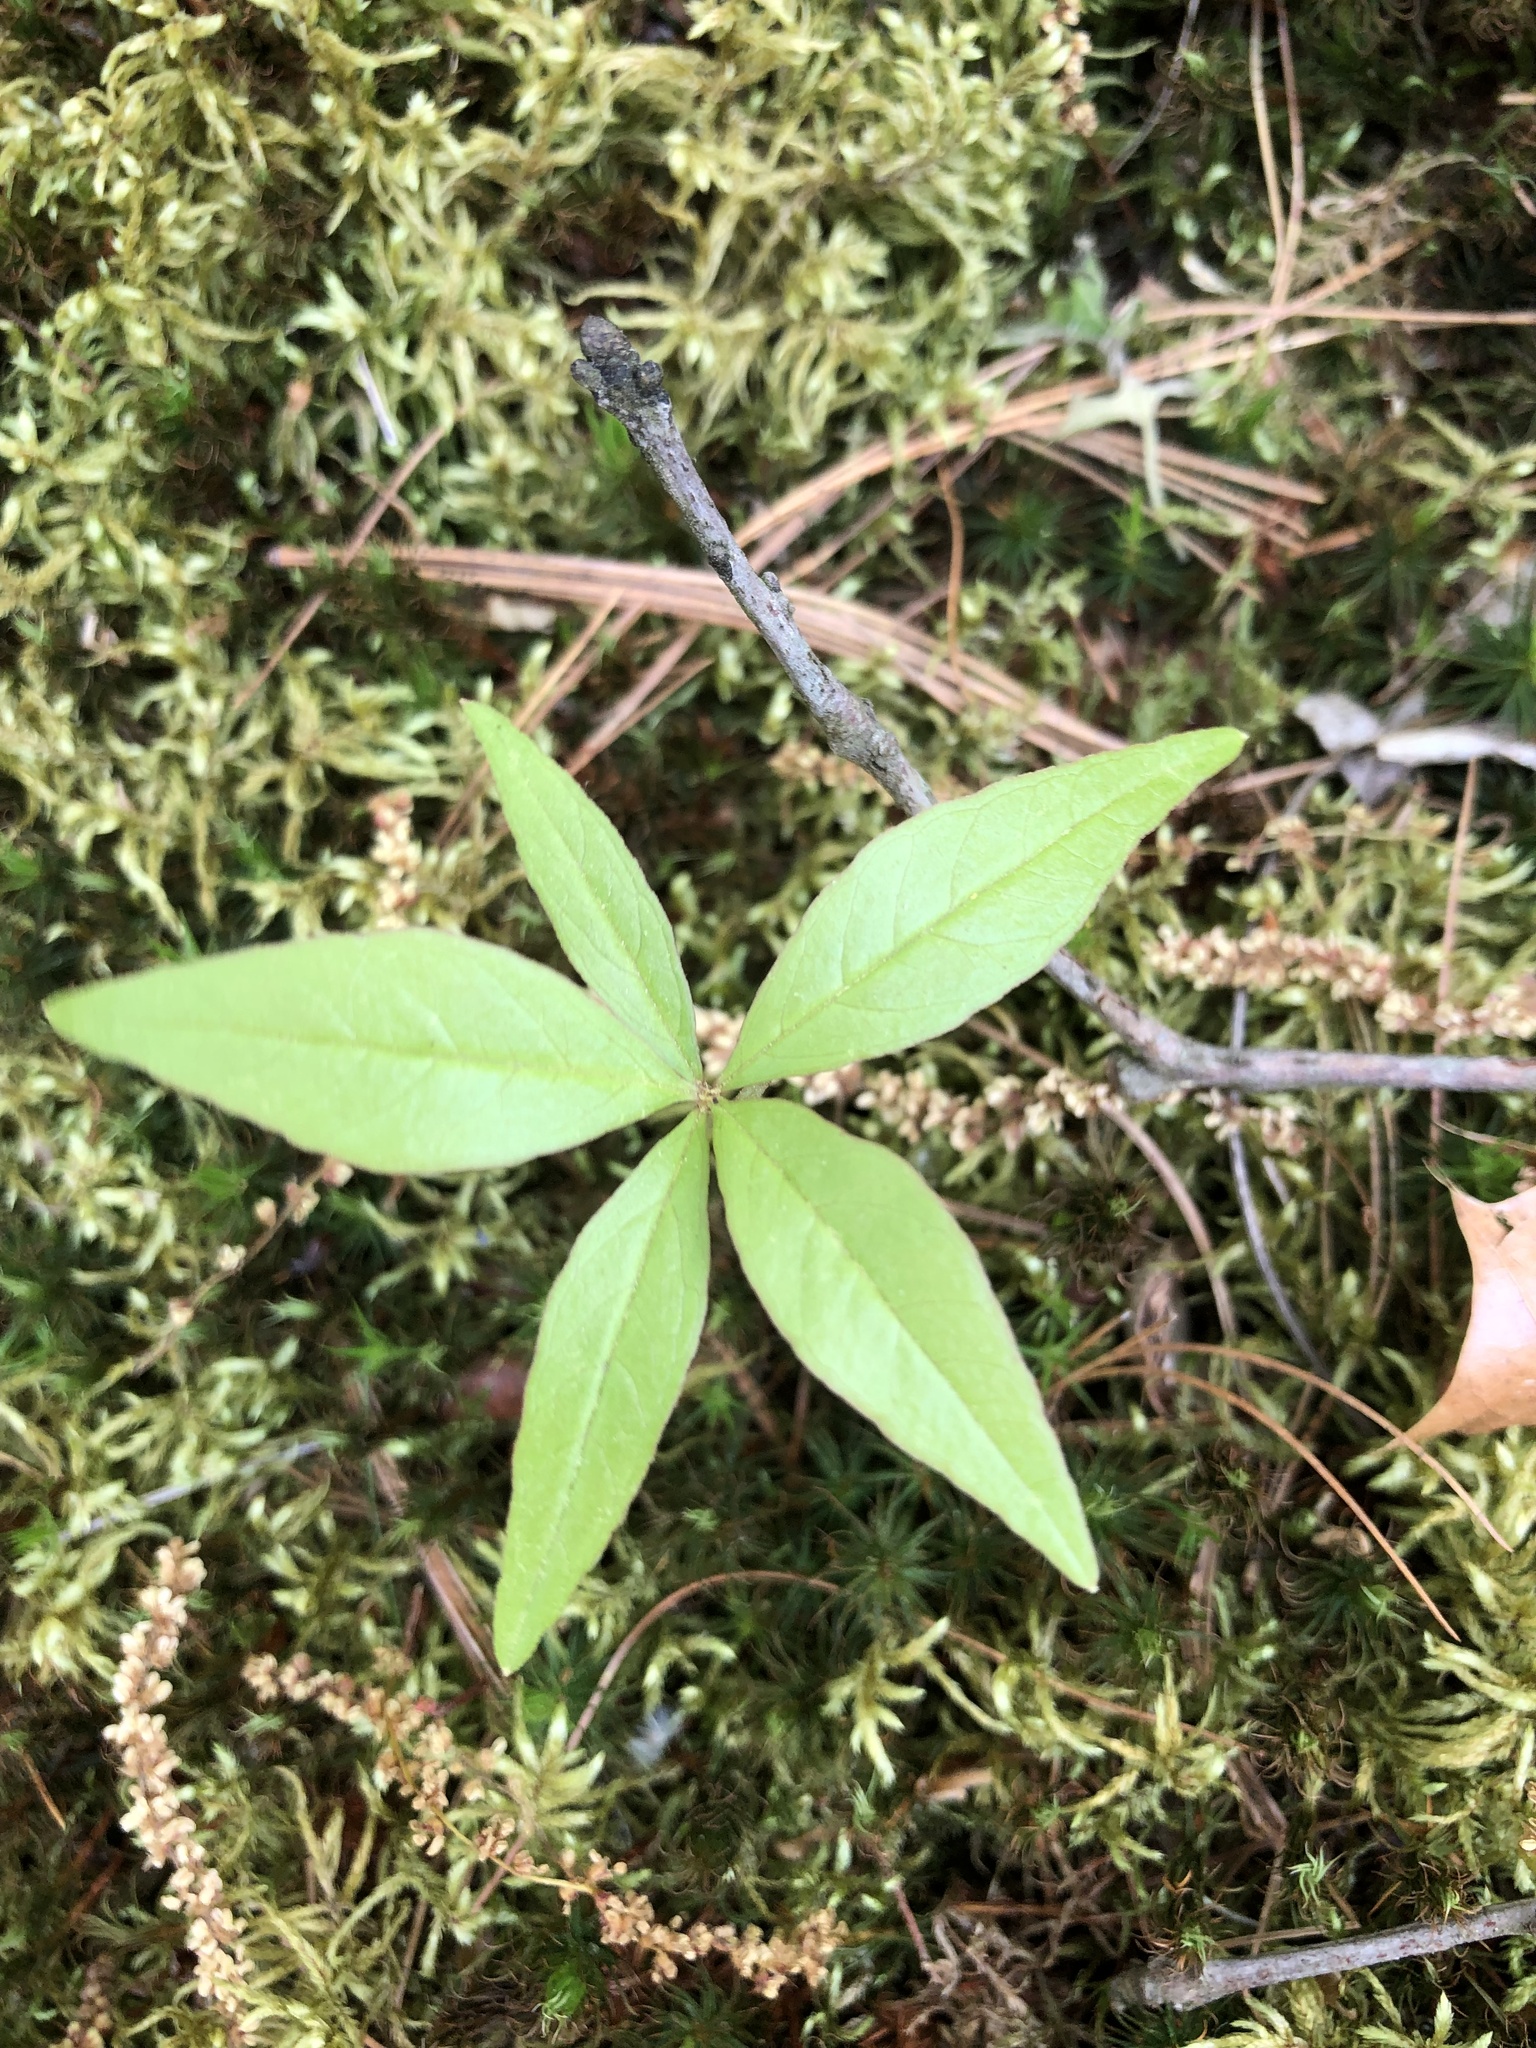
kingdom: Plantae
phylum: Tracheophyta
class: Magnoliopsida
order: Ericales
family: Primulaceae
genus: Lysimachia
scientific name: Lysimachia borealis
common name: American starflower
